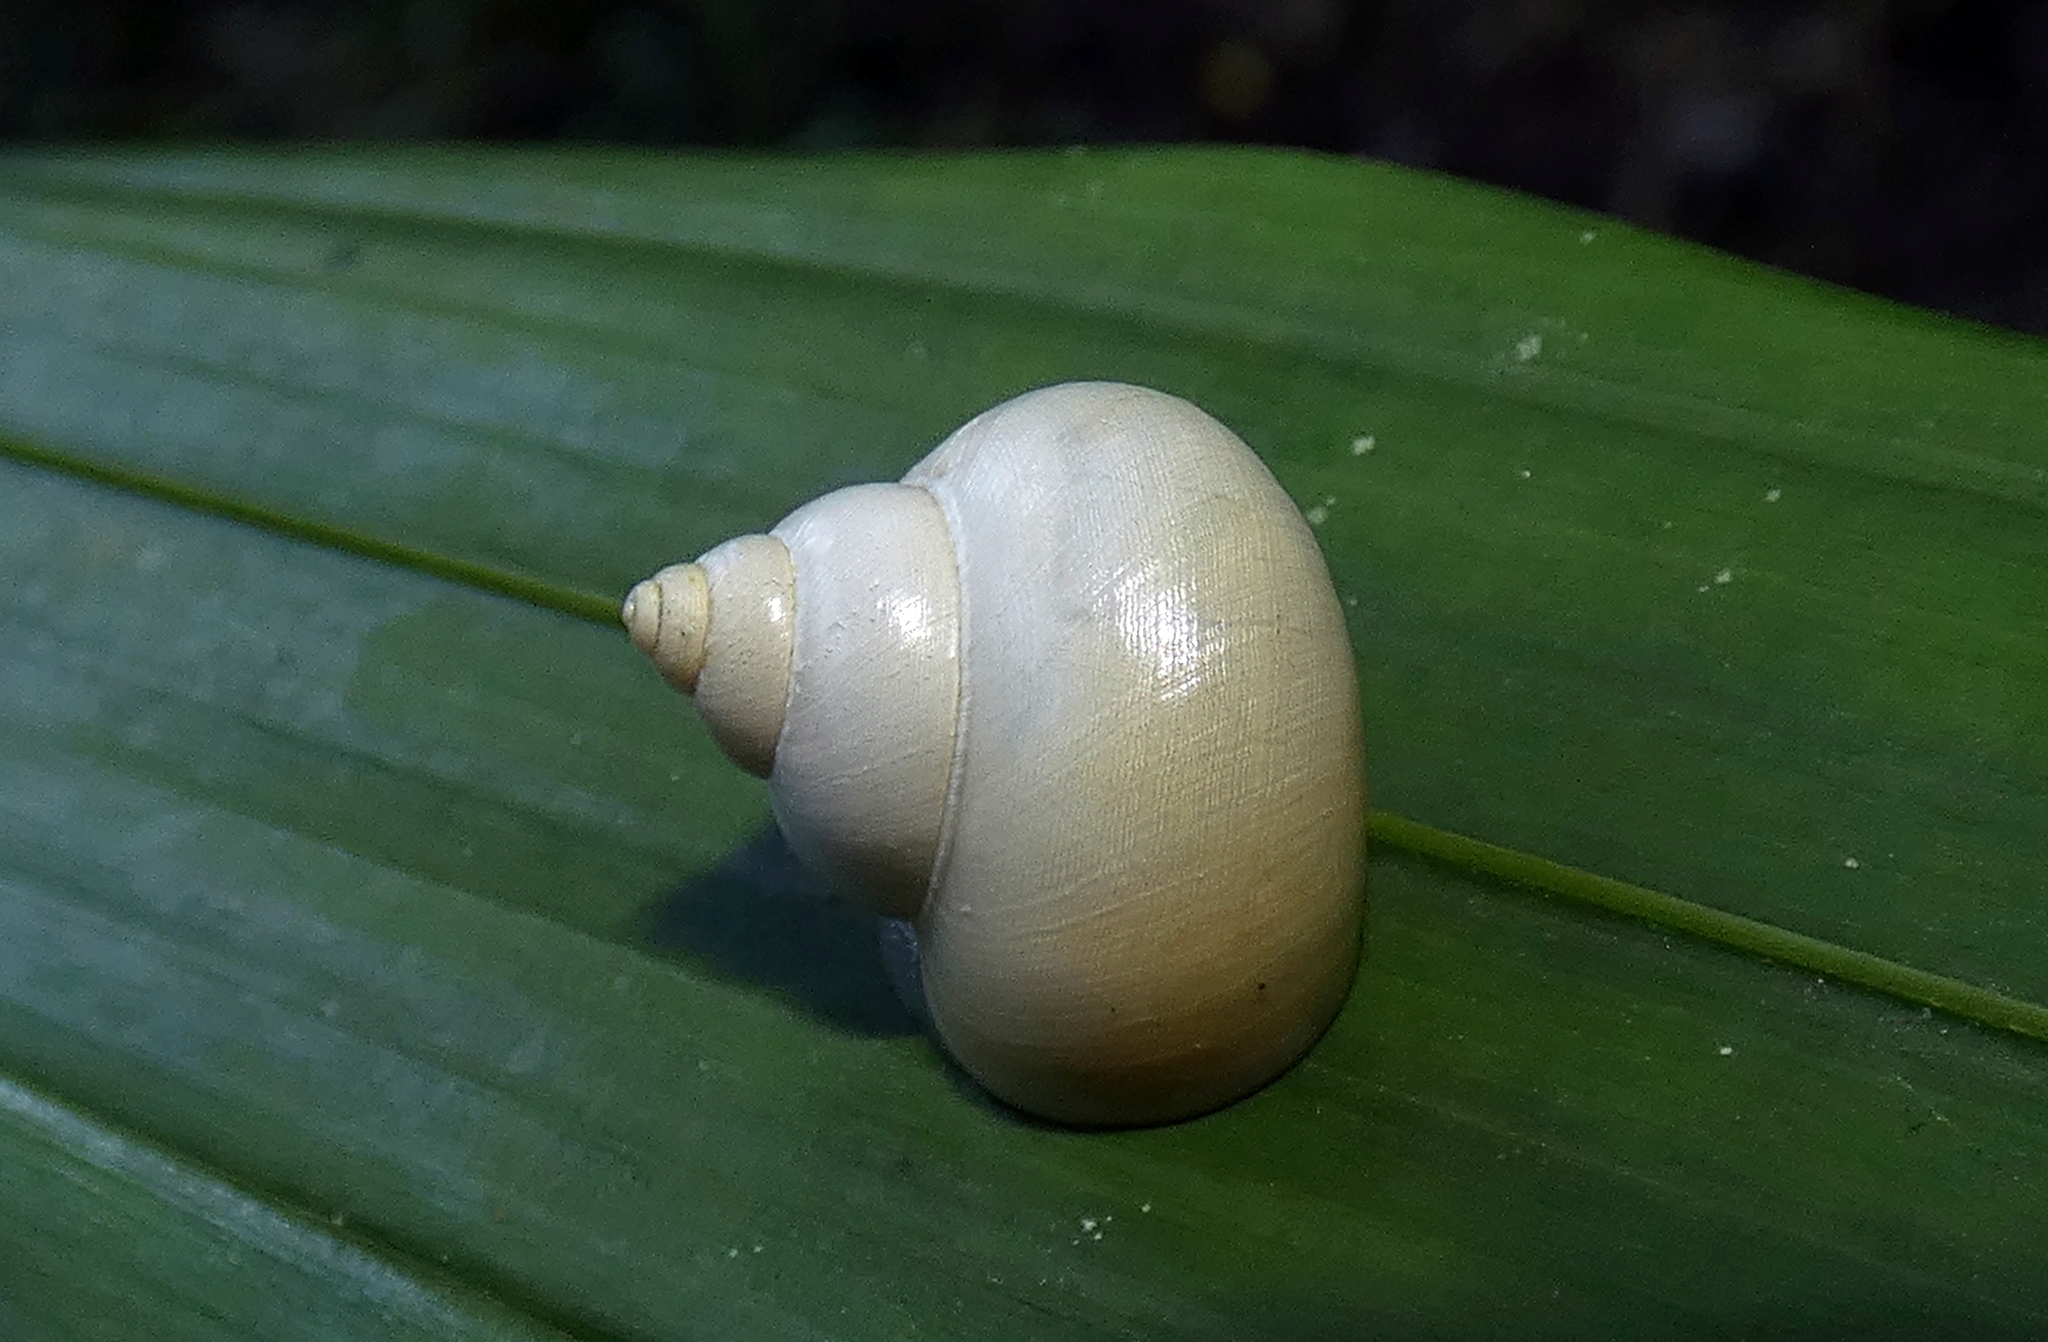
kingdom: Animalia
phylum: Mollusca
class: Gastropoda
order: Architaenioglossa
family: Cyclophoridae
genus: Leptopoma
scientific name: Leptopoma perlucidum
